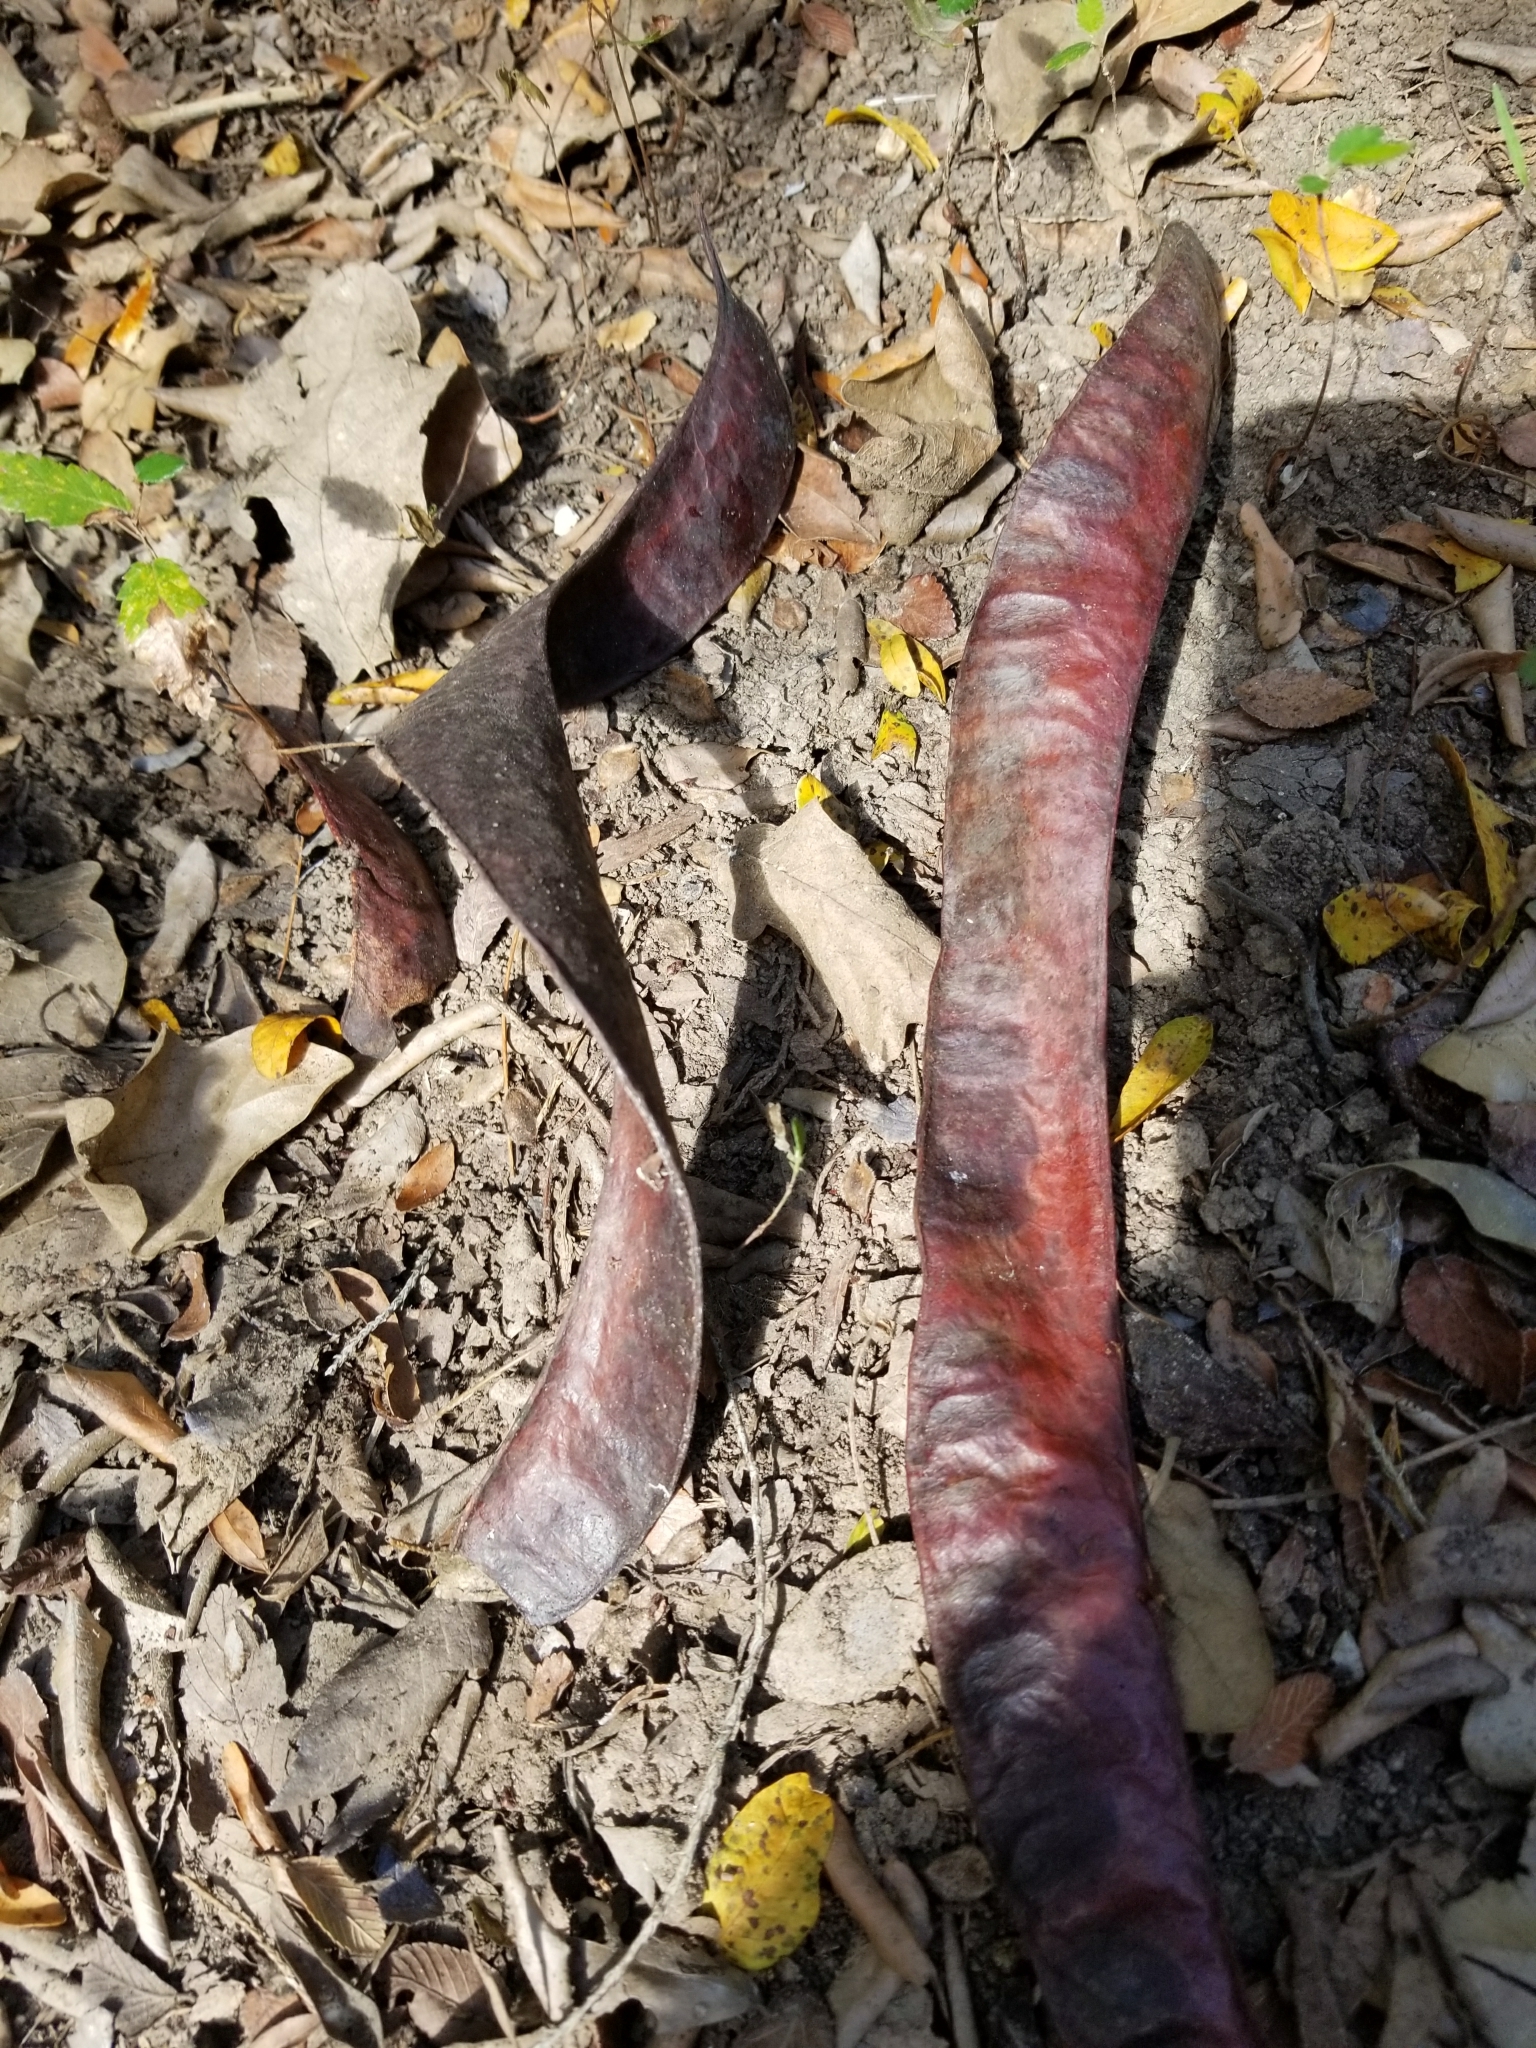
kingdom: Plantae
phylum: Tracheophyta
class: Magnoliopsida
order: Fabales
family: Fabaceae
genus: Gleditsia
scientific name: Gleditsia triacanthos
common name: Common honeylocust
